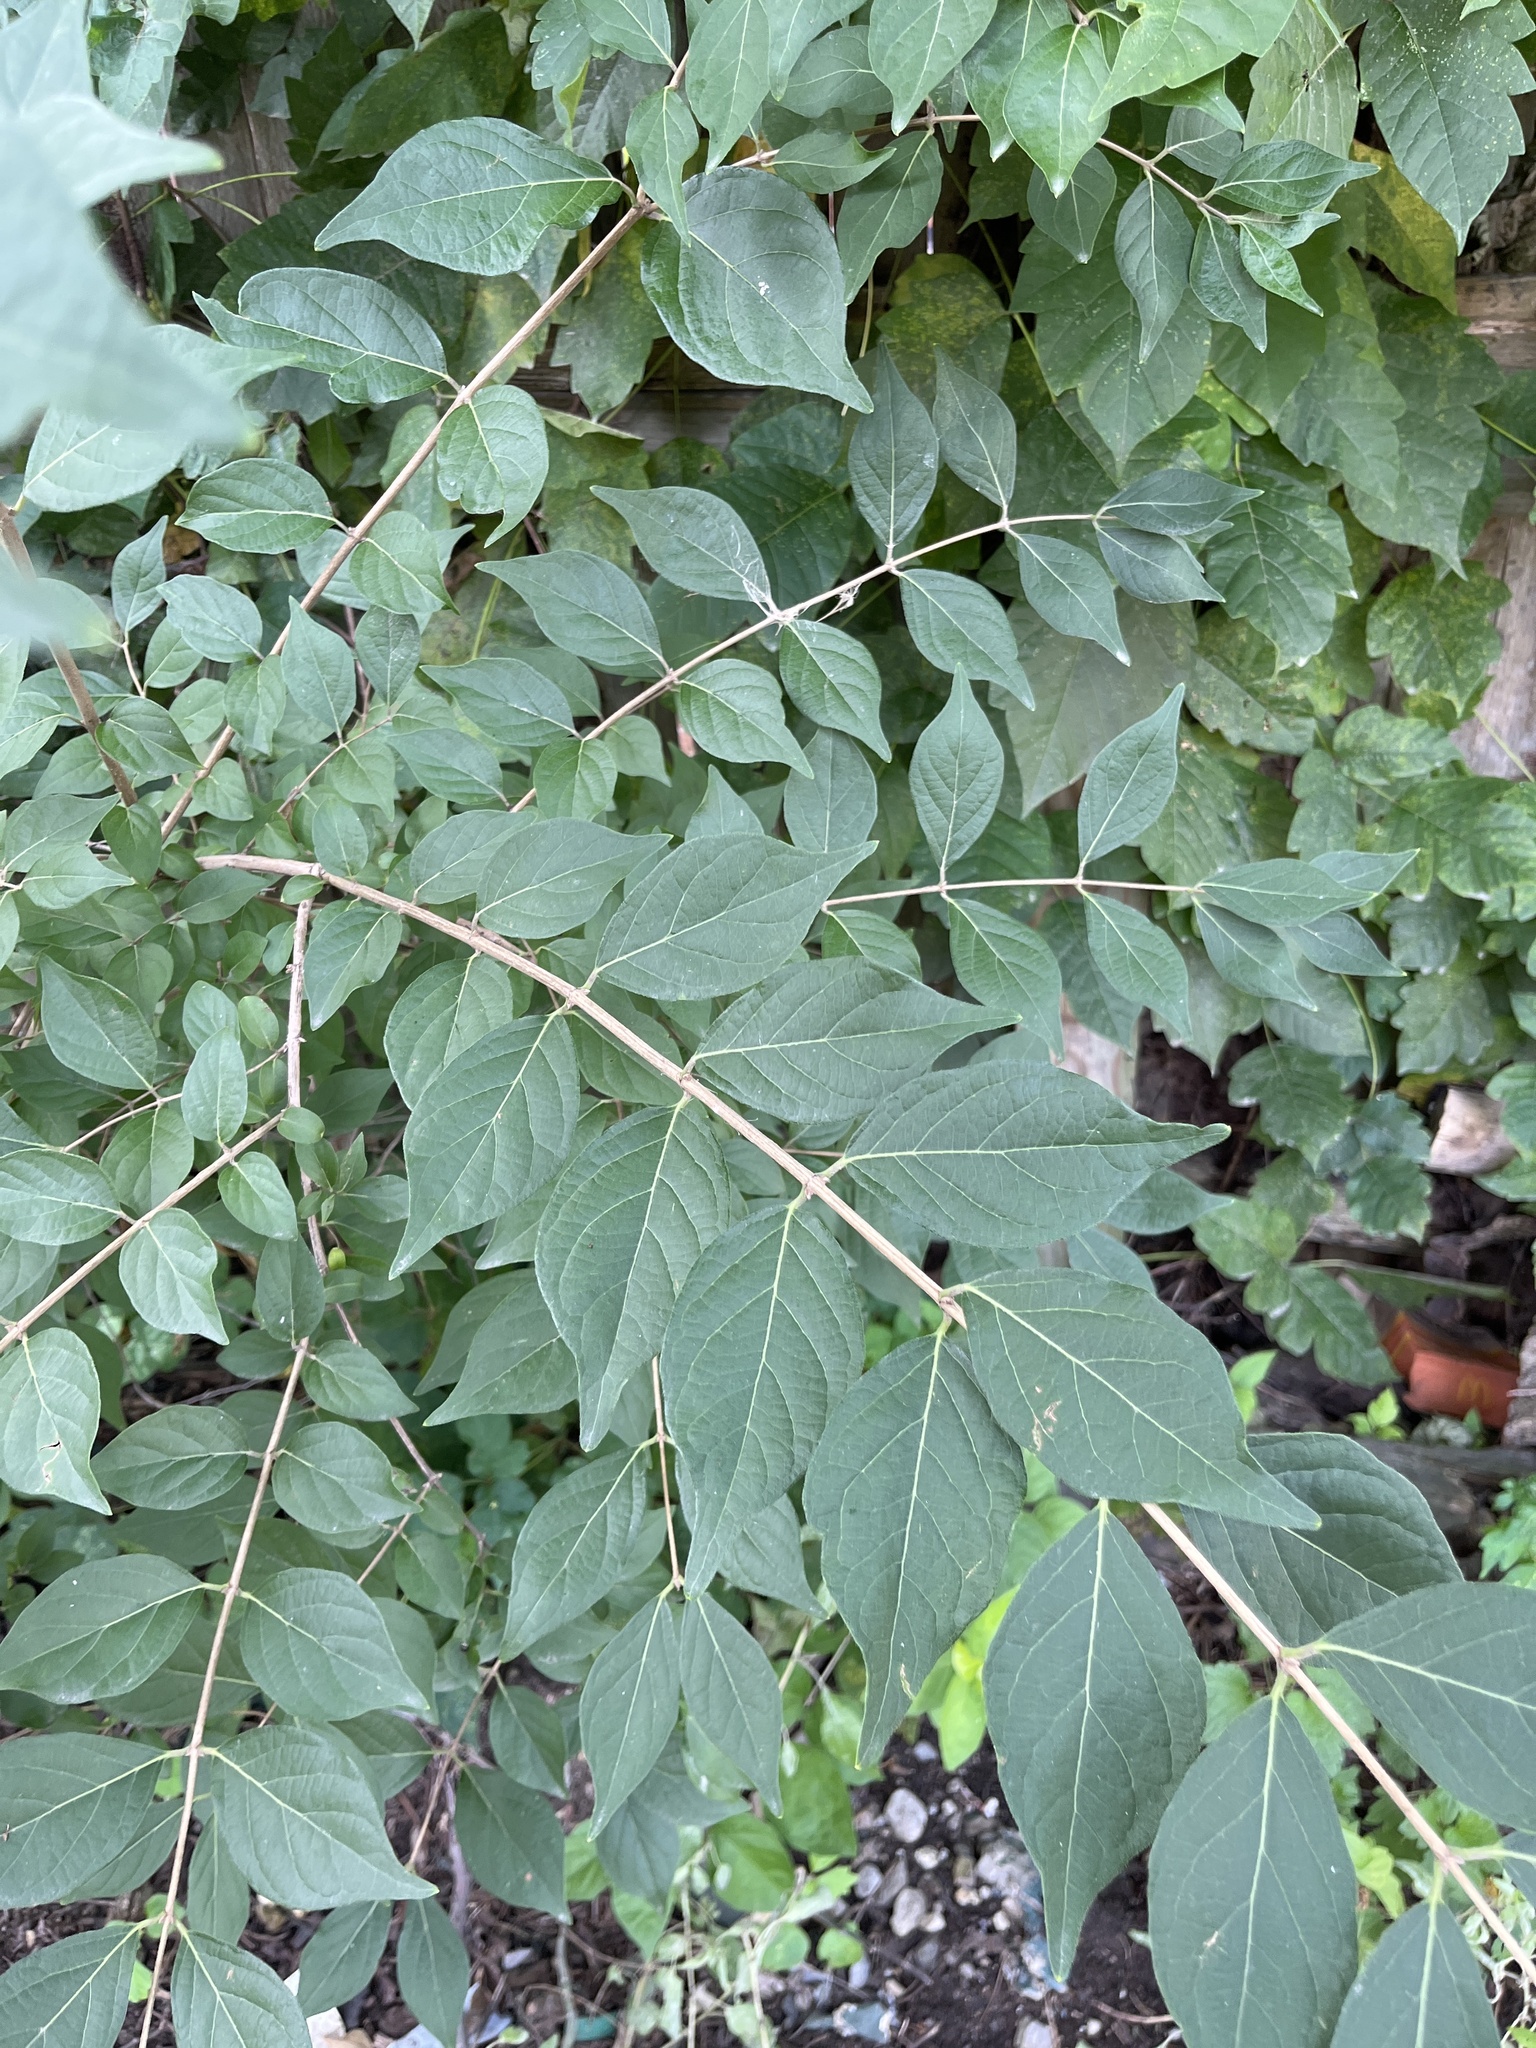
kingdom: Plantae
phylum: Tracheophyta
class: Magnoliopsida
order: Dipsacales
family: Caprifoliaceae
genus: Lonicera
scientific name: Lonicera maackii
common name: Amur honeysuckle
